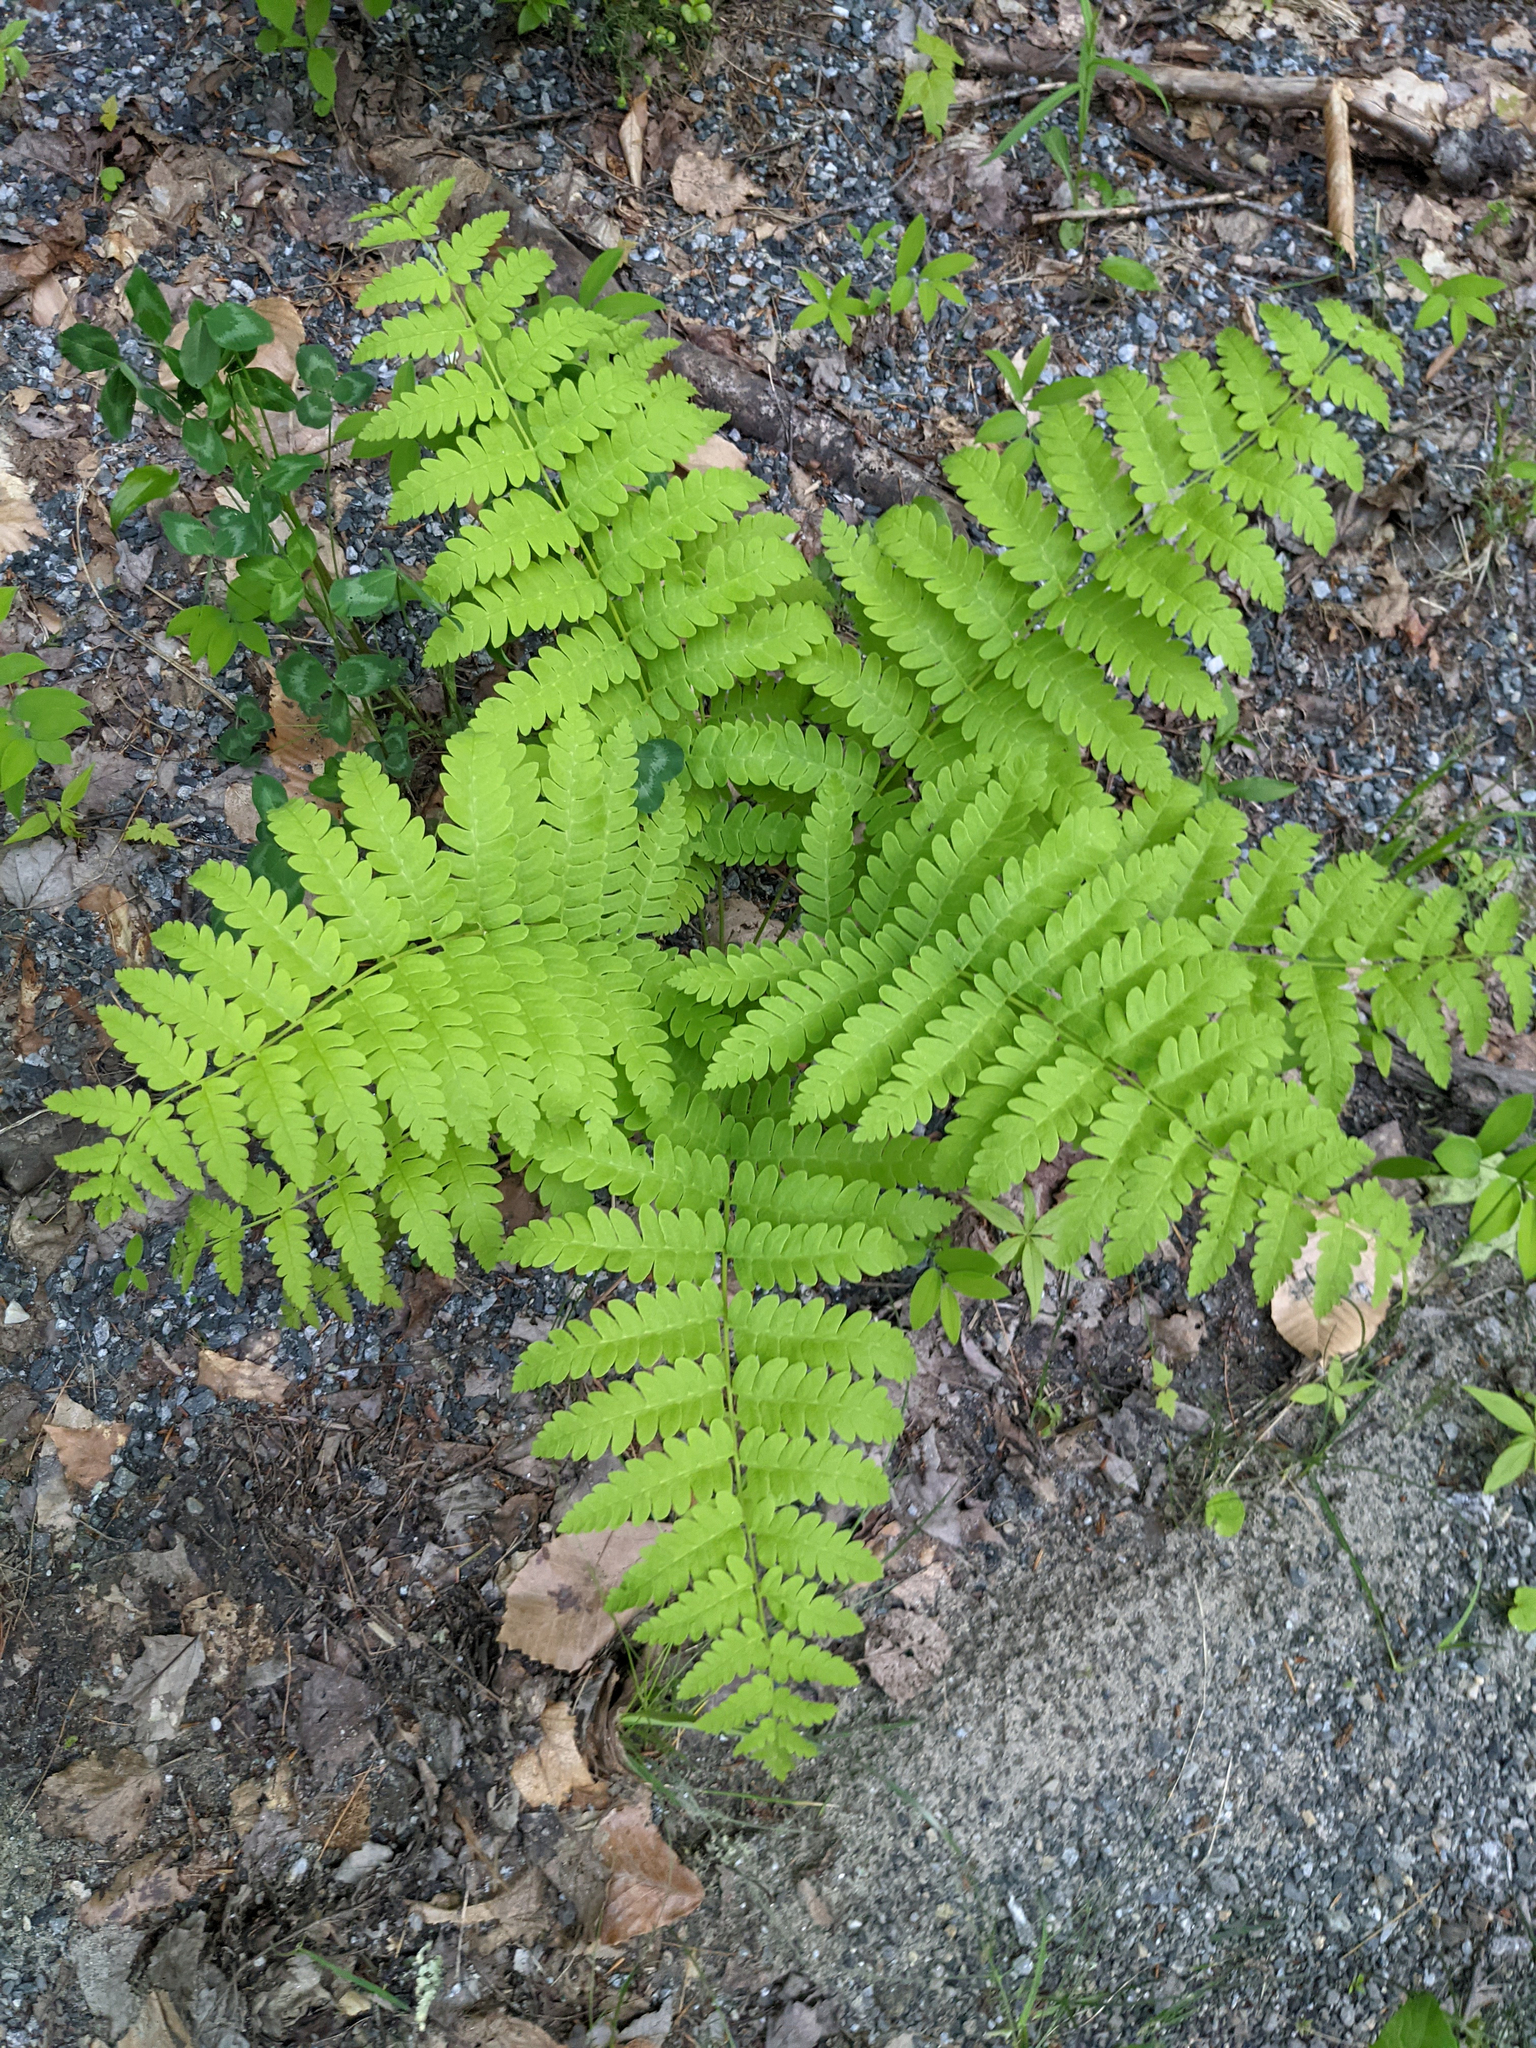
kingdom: Plantae
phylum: Tracheophyta
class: Polypodiopsida
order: Osmundales
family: Osmundaceae
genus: Claytosmunda
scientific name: Claytosmunda claytoniana
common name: Clayton's fern
